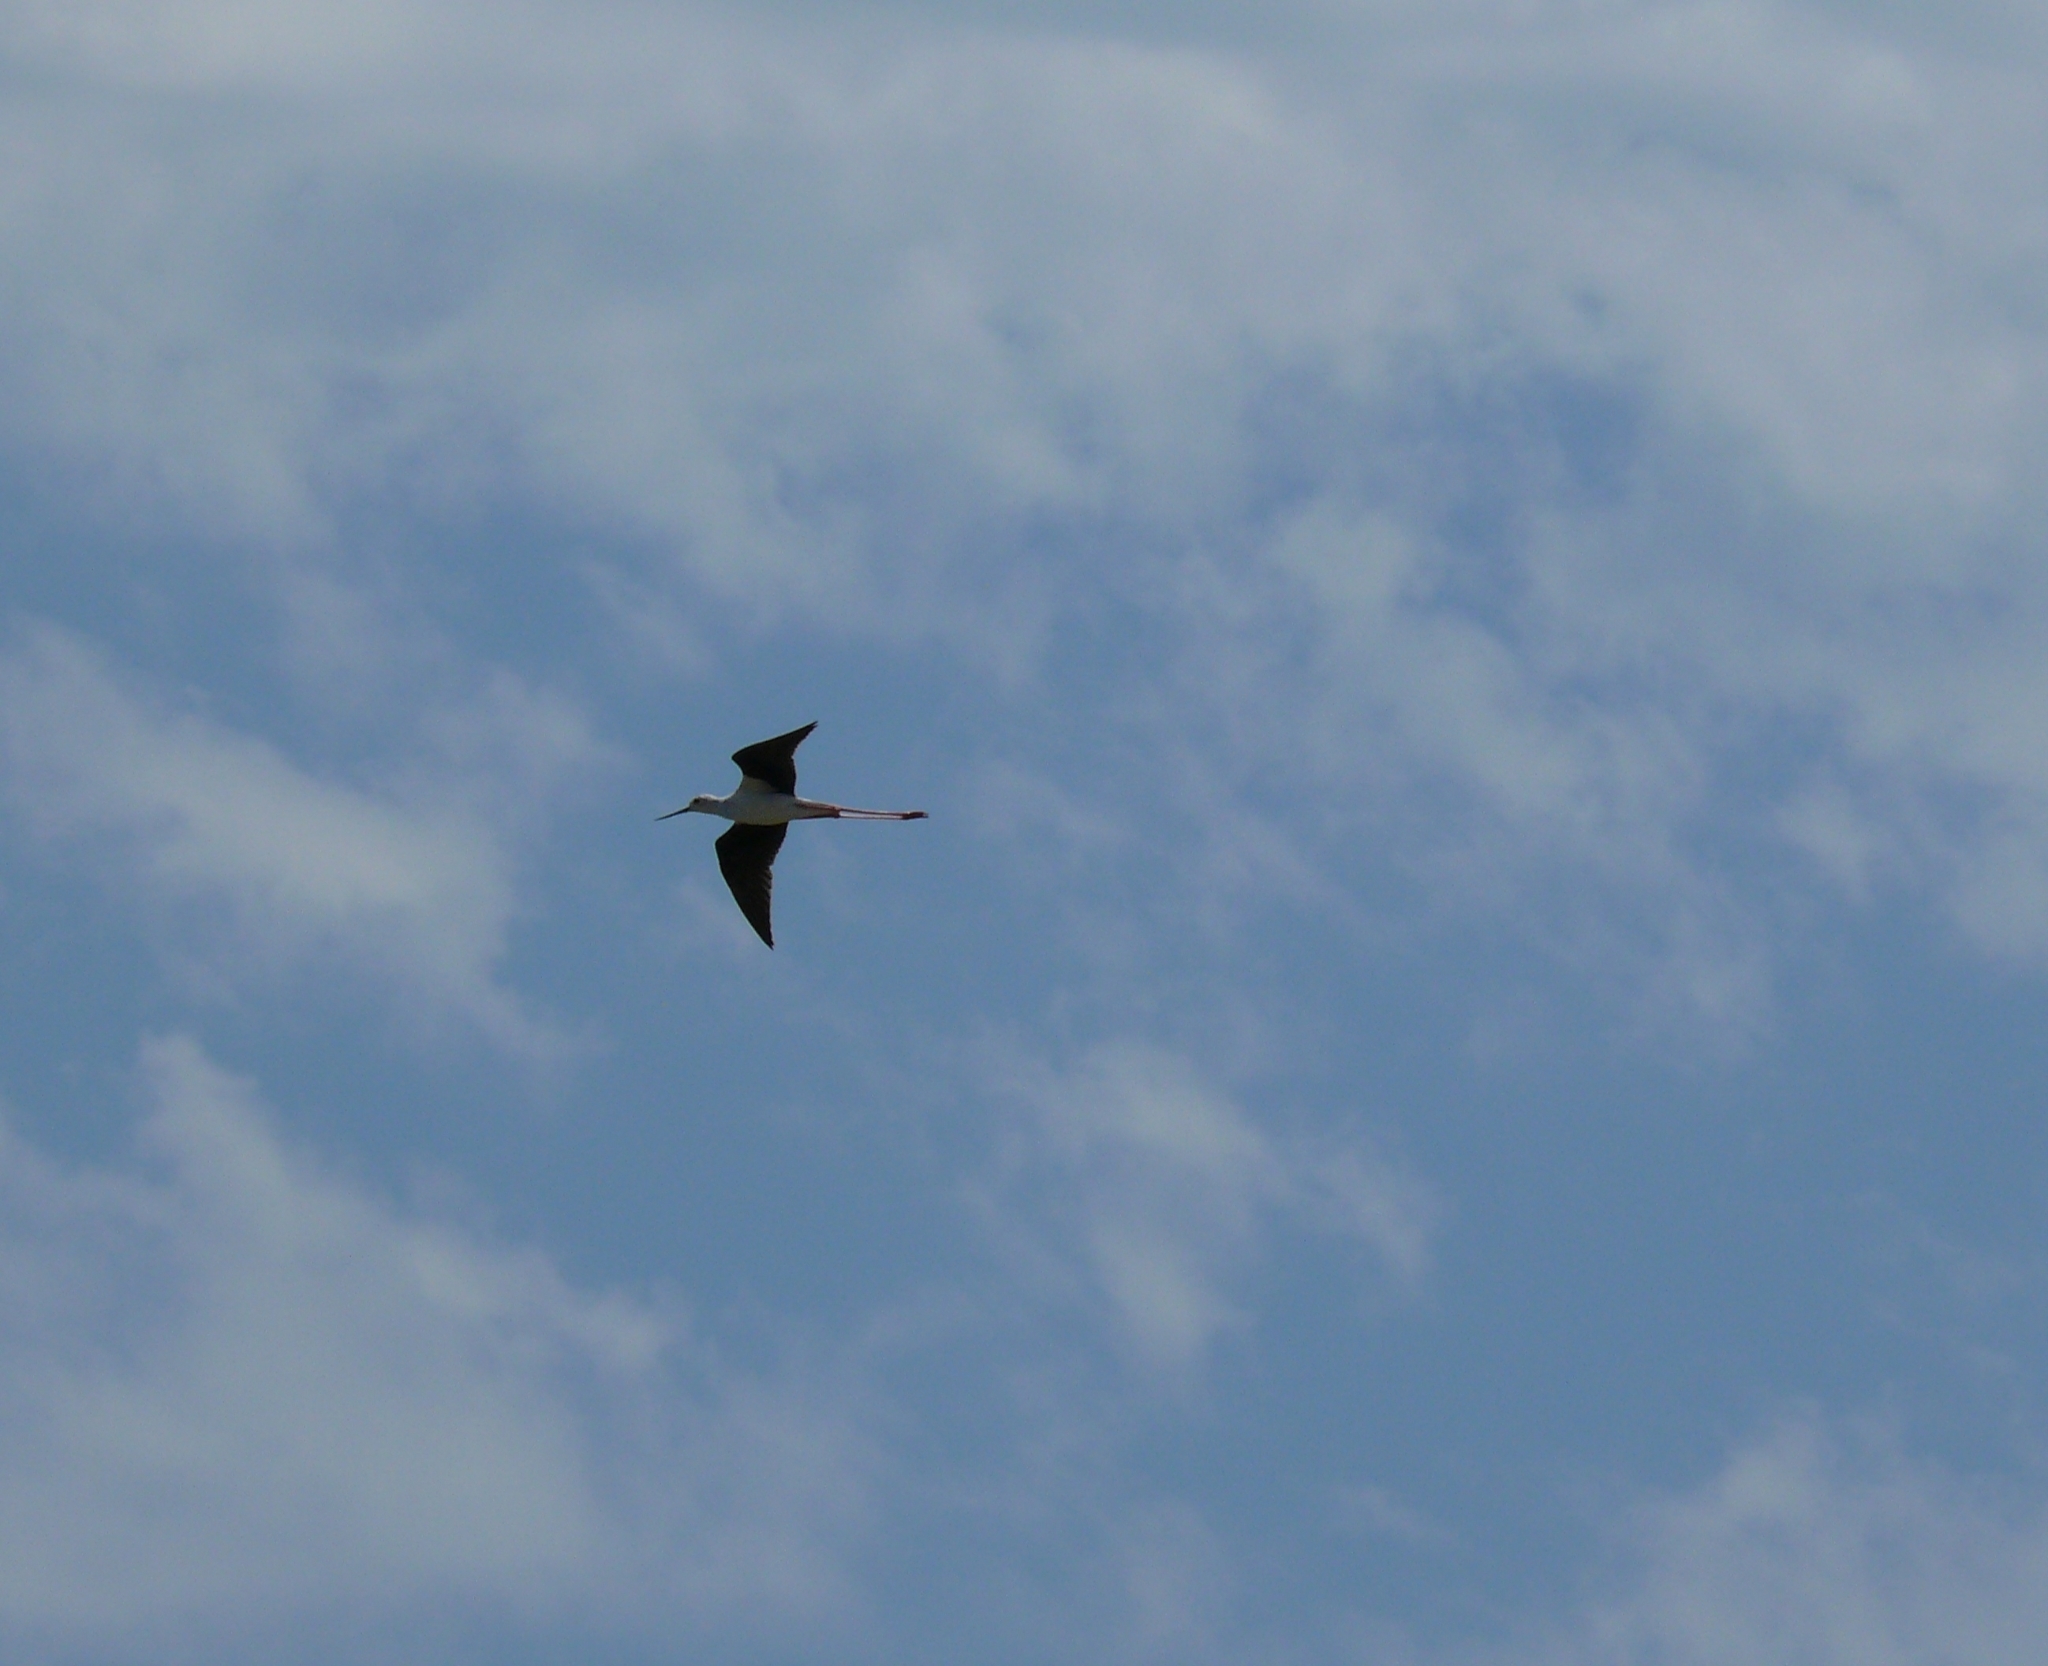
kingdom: Animalia
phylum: Chordata
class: Aves
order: Charadriiformes
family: Recurvirostridae
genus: Himantopus
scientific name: Himantopus himantopus
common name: Black-winged stilt
